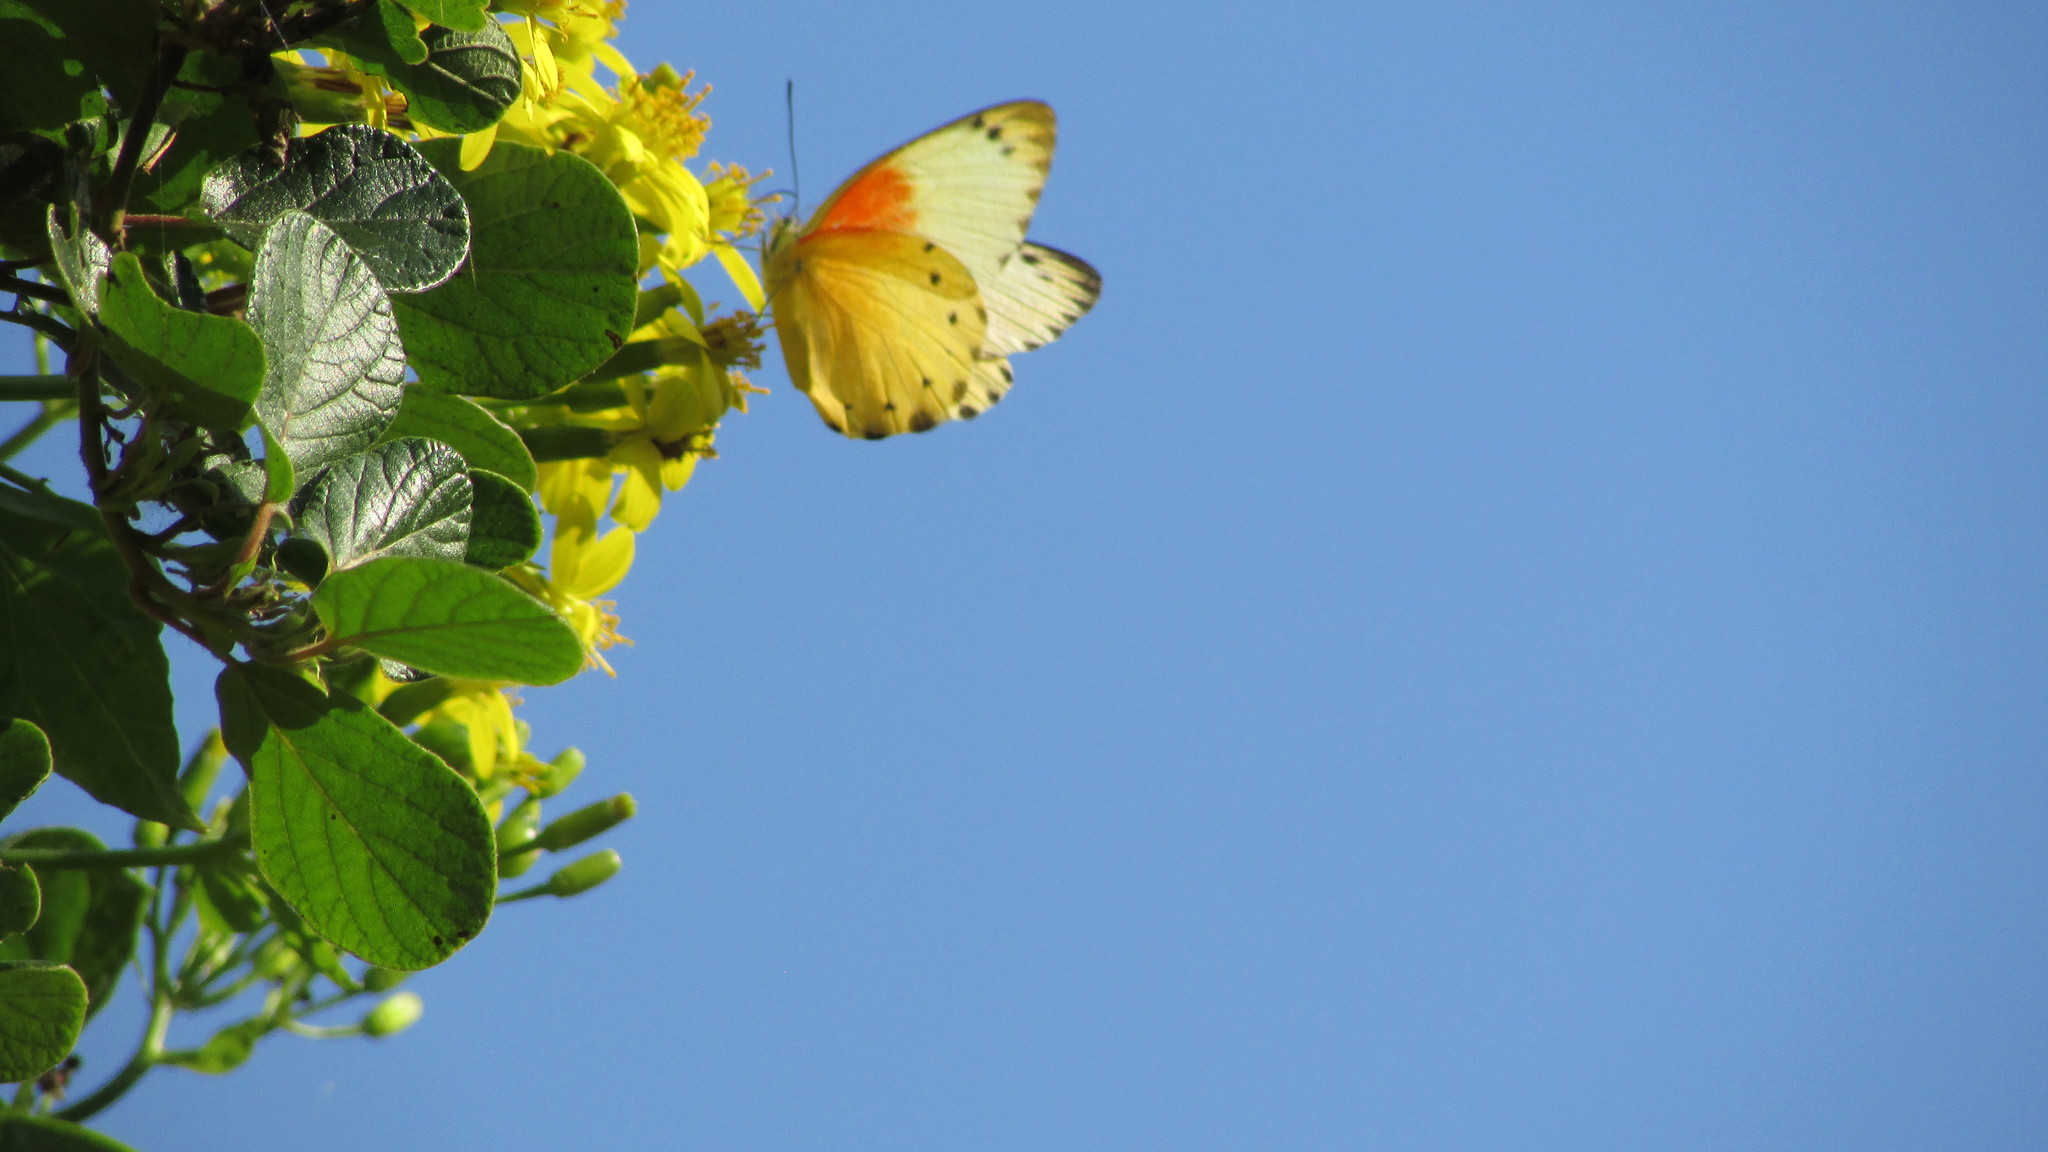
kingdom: Animalia
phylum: Arthropoda
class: Insecta
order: Lepidoptera
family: Pieridae
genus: Belenois
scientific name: Belenois thysa
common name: False dotted border
